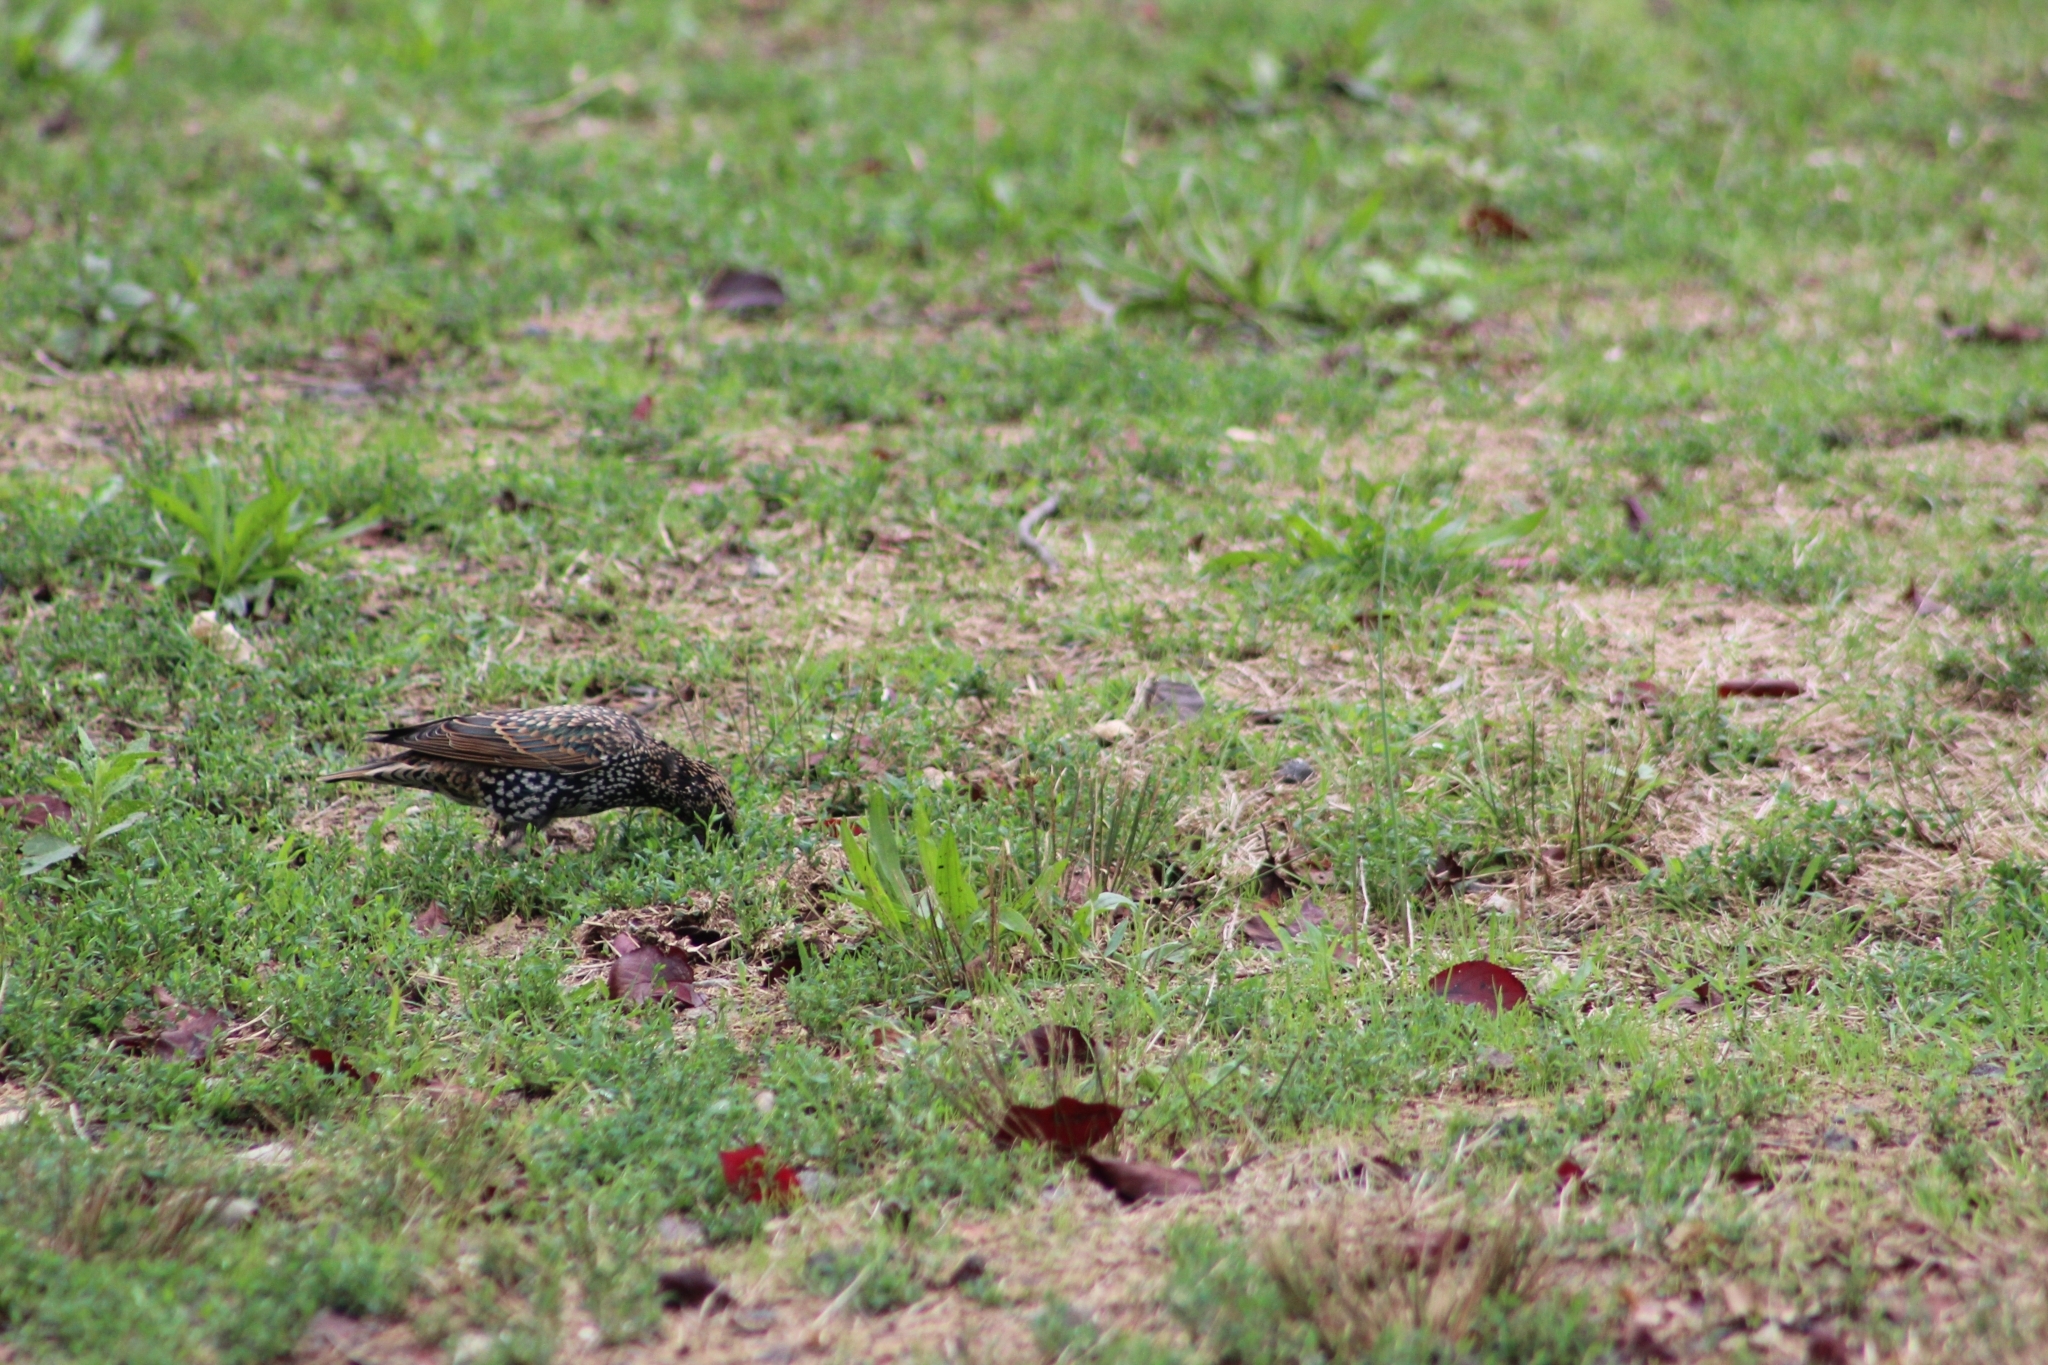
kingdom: Animalia
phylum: Chordata
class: Aves
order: Passeriformes
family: Sturnidae
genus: Sturnus
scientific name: Sturnus vulgaris
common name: Common starling
